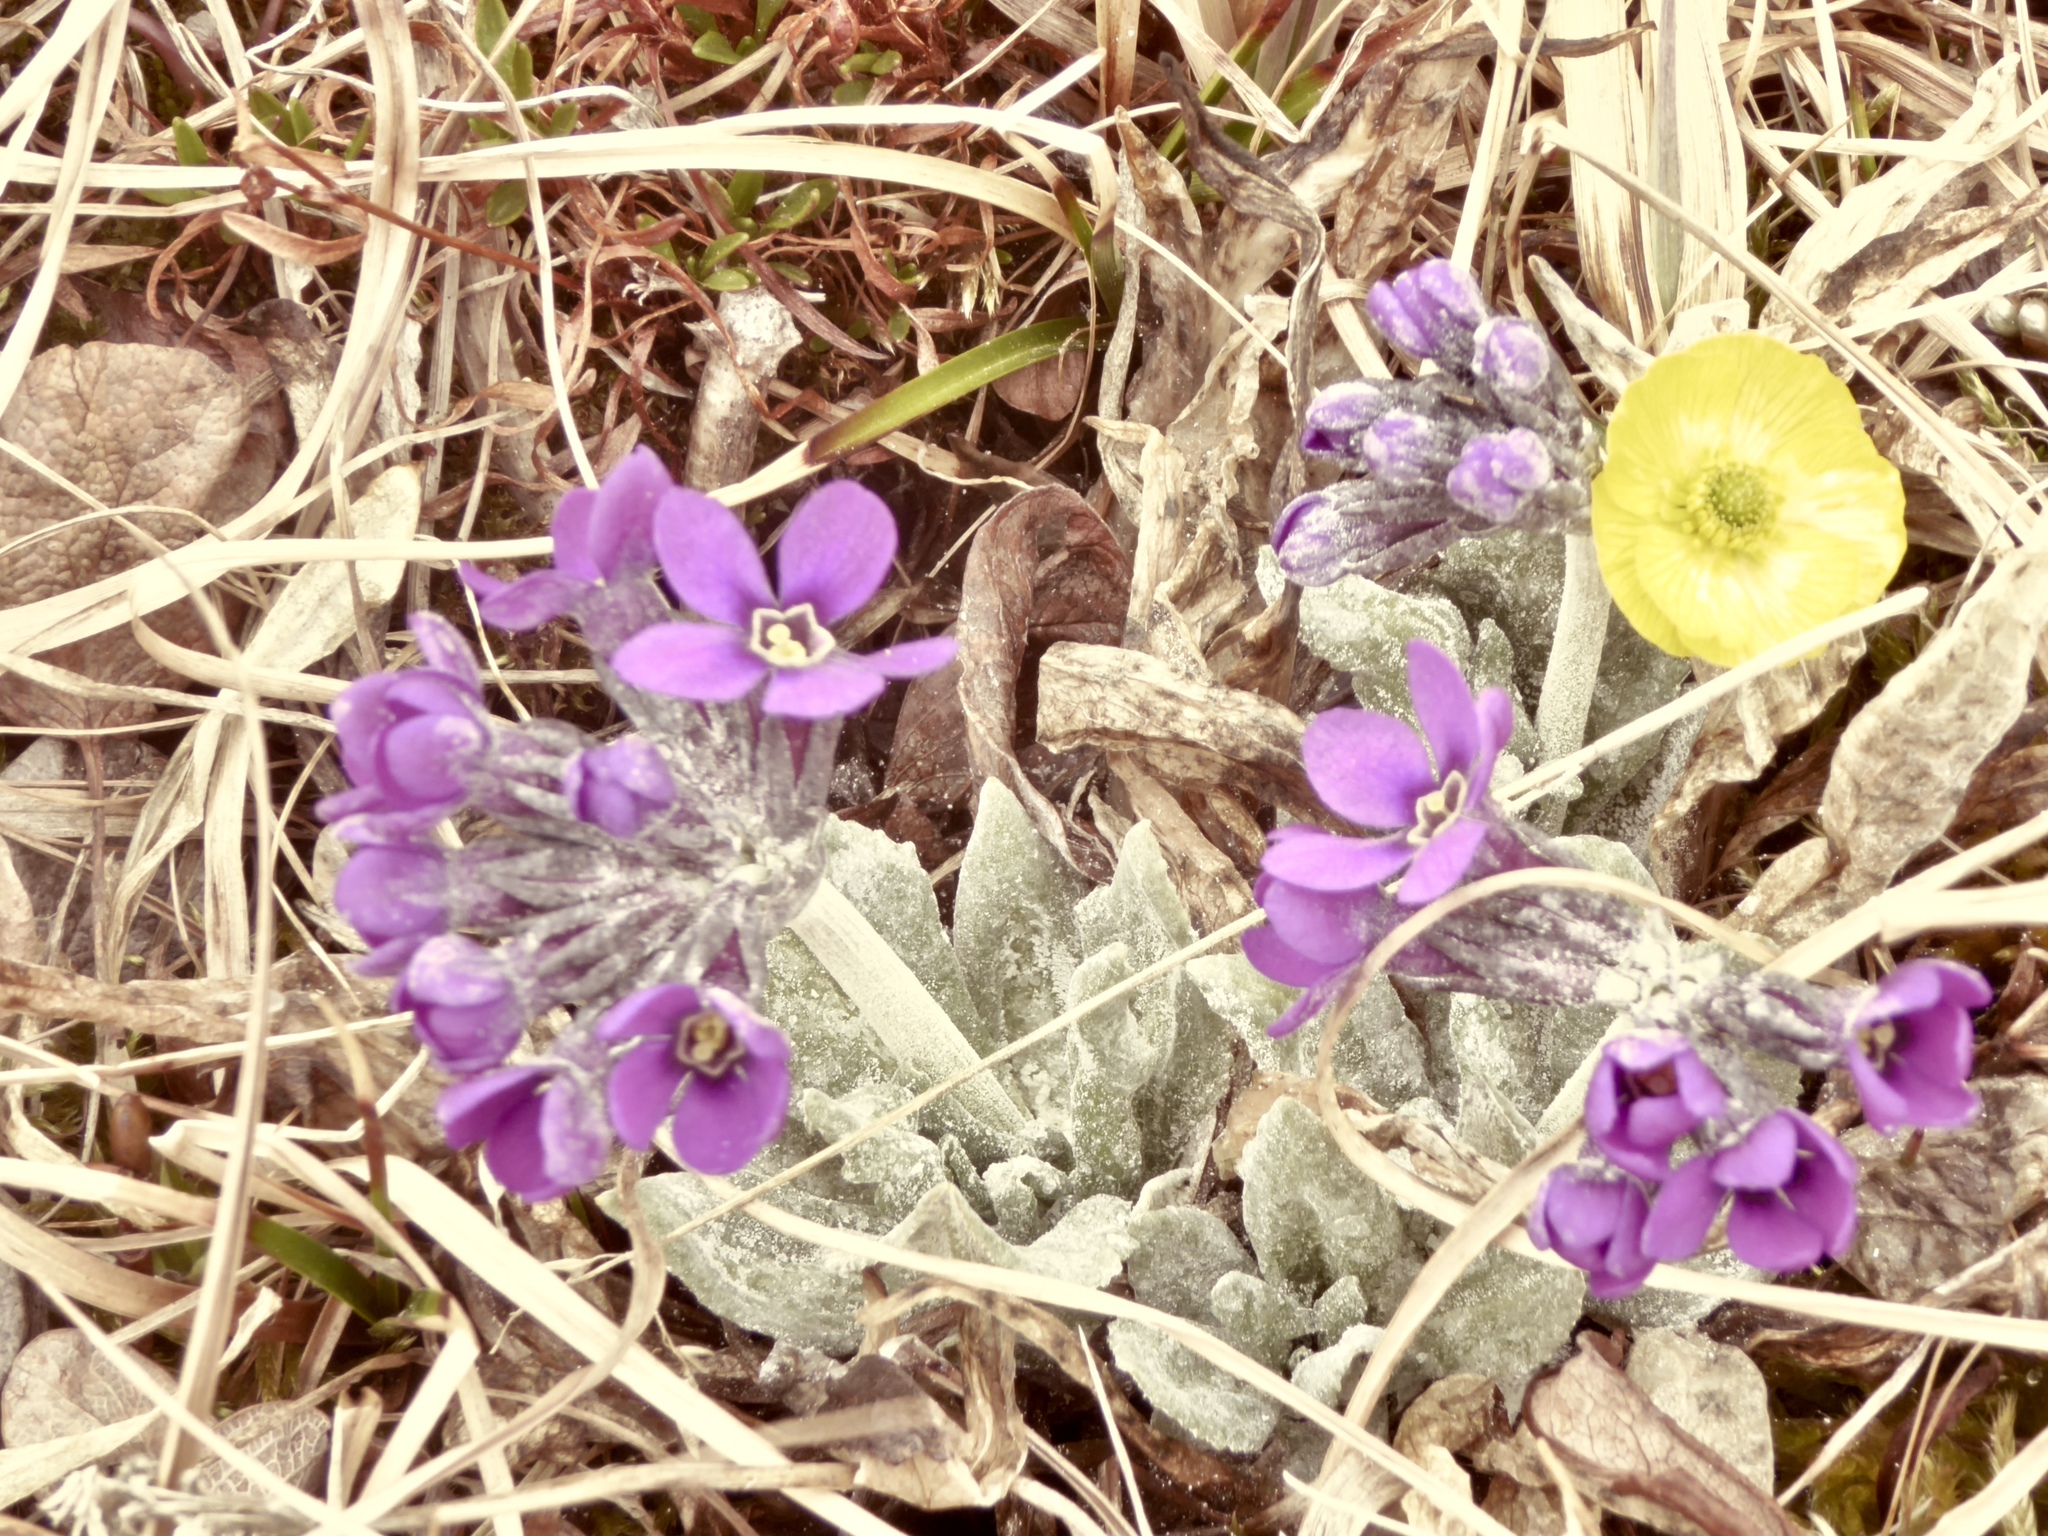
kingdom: Plantae
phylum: Tracheophyta
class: Magnoliopsida
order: Ericales
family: Primulaceae
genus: Primula
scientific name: Primula pumila
